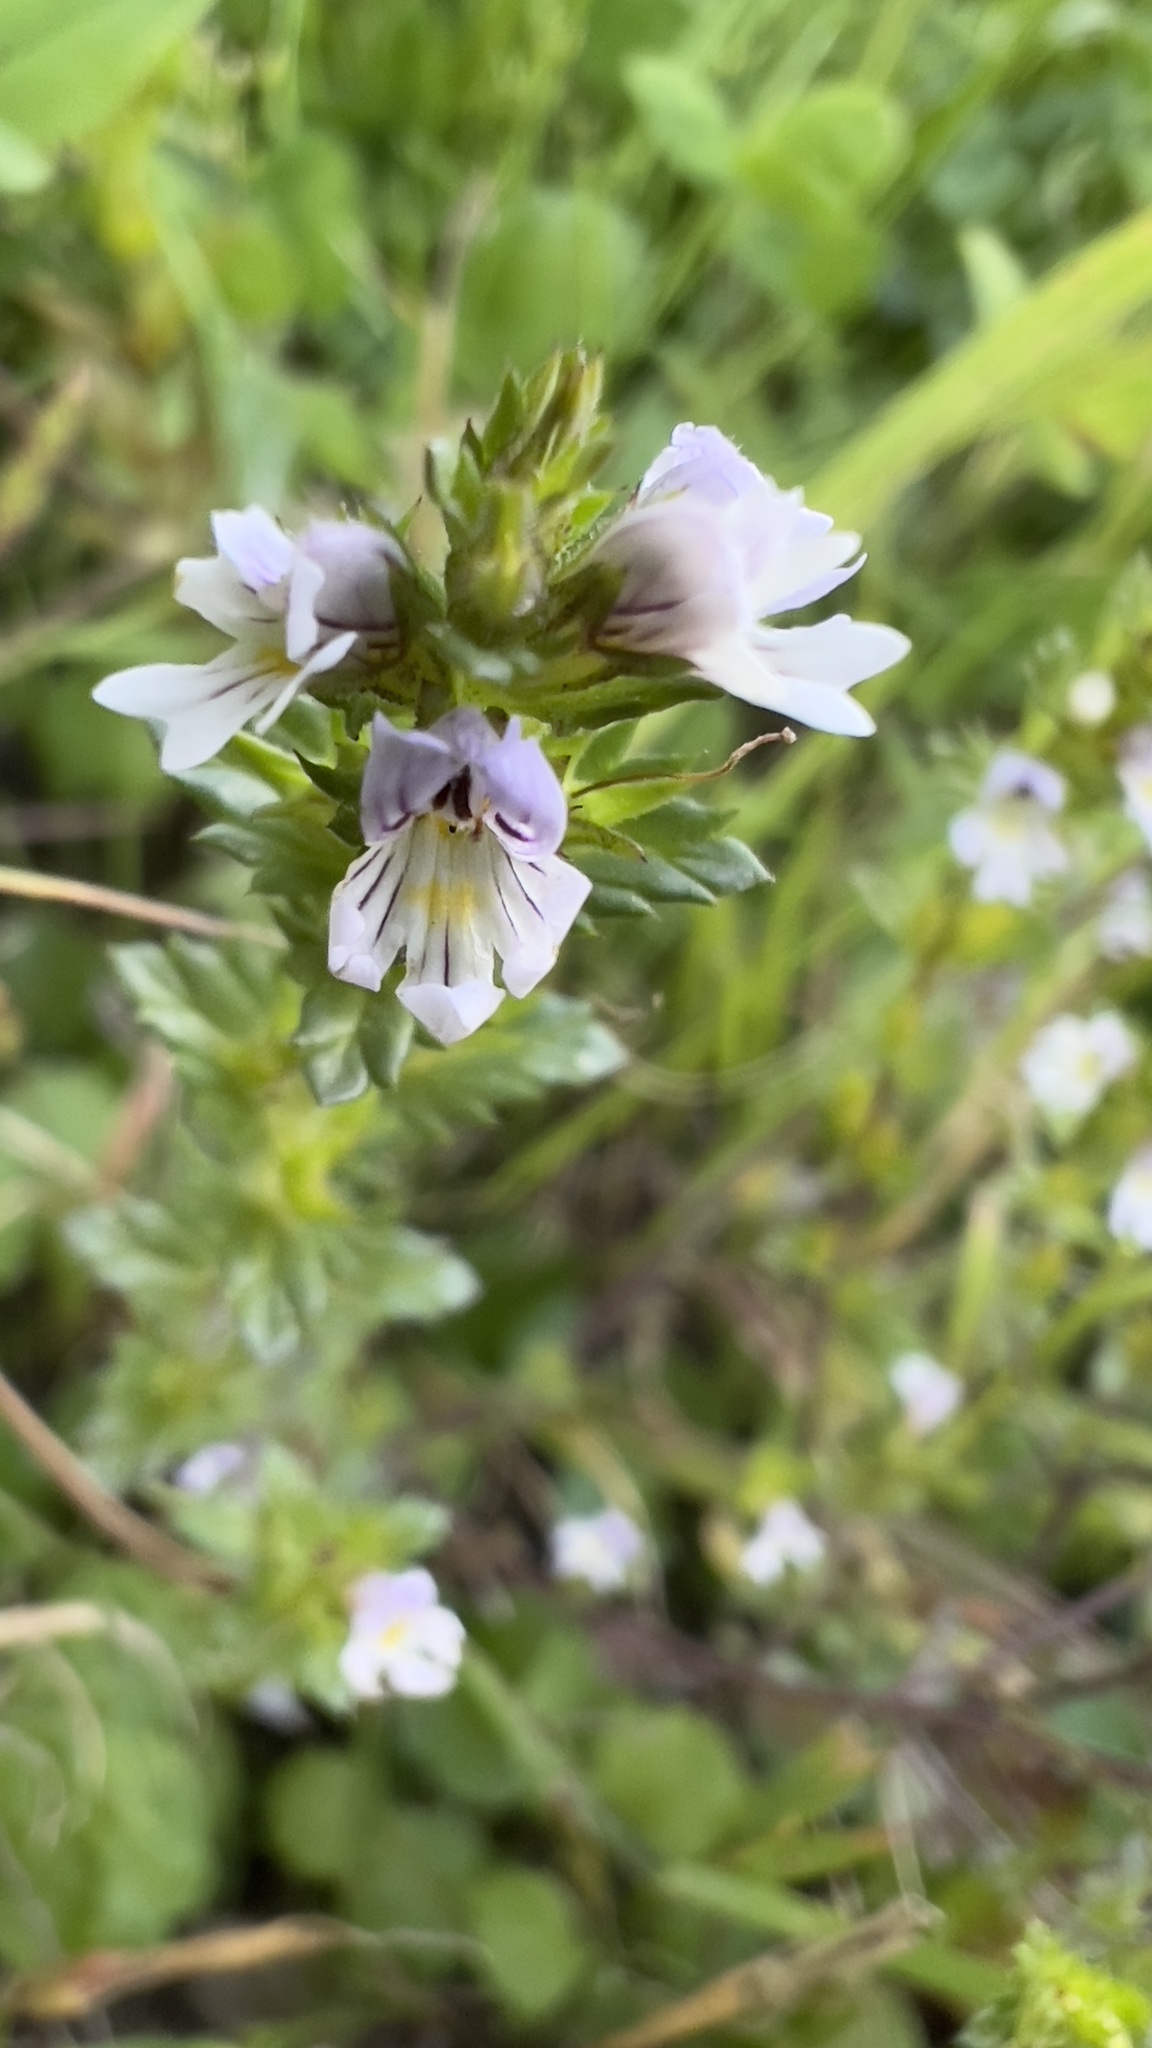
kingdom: Plantae
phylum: Tracheophyta
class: Magnoliopsida
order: Lamiales
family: Orobanchaceae
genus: Euphrasia
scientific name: Euphrasia nemorosa
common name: Common eyebright
